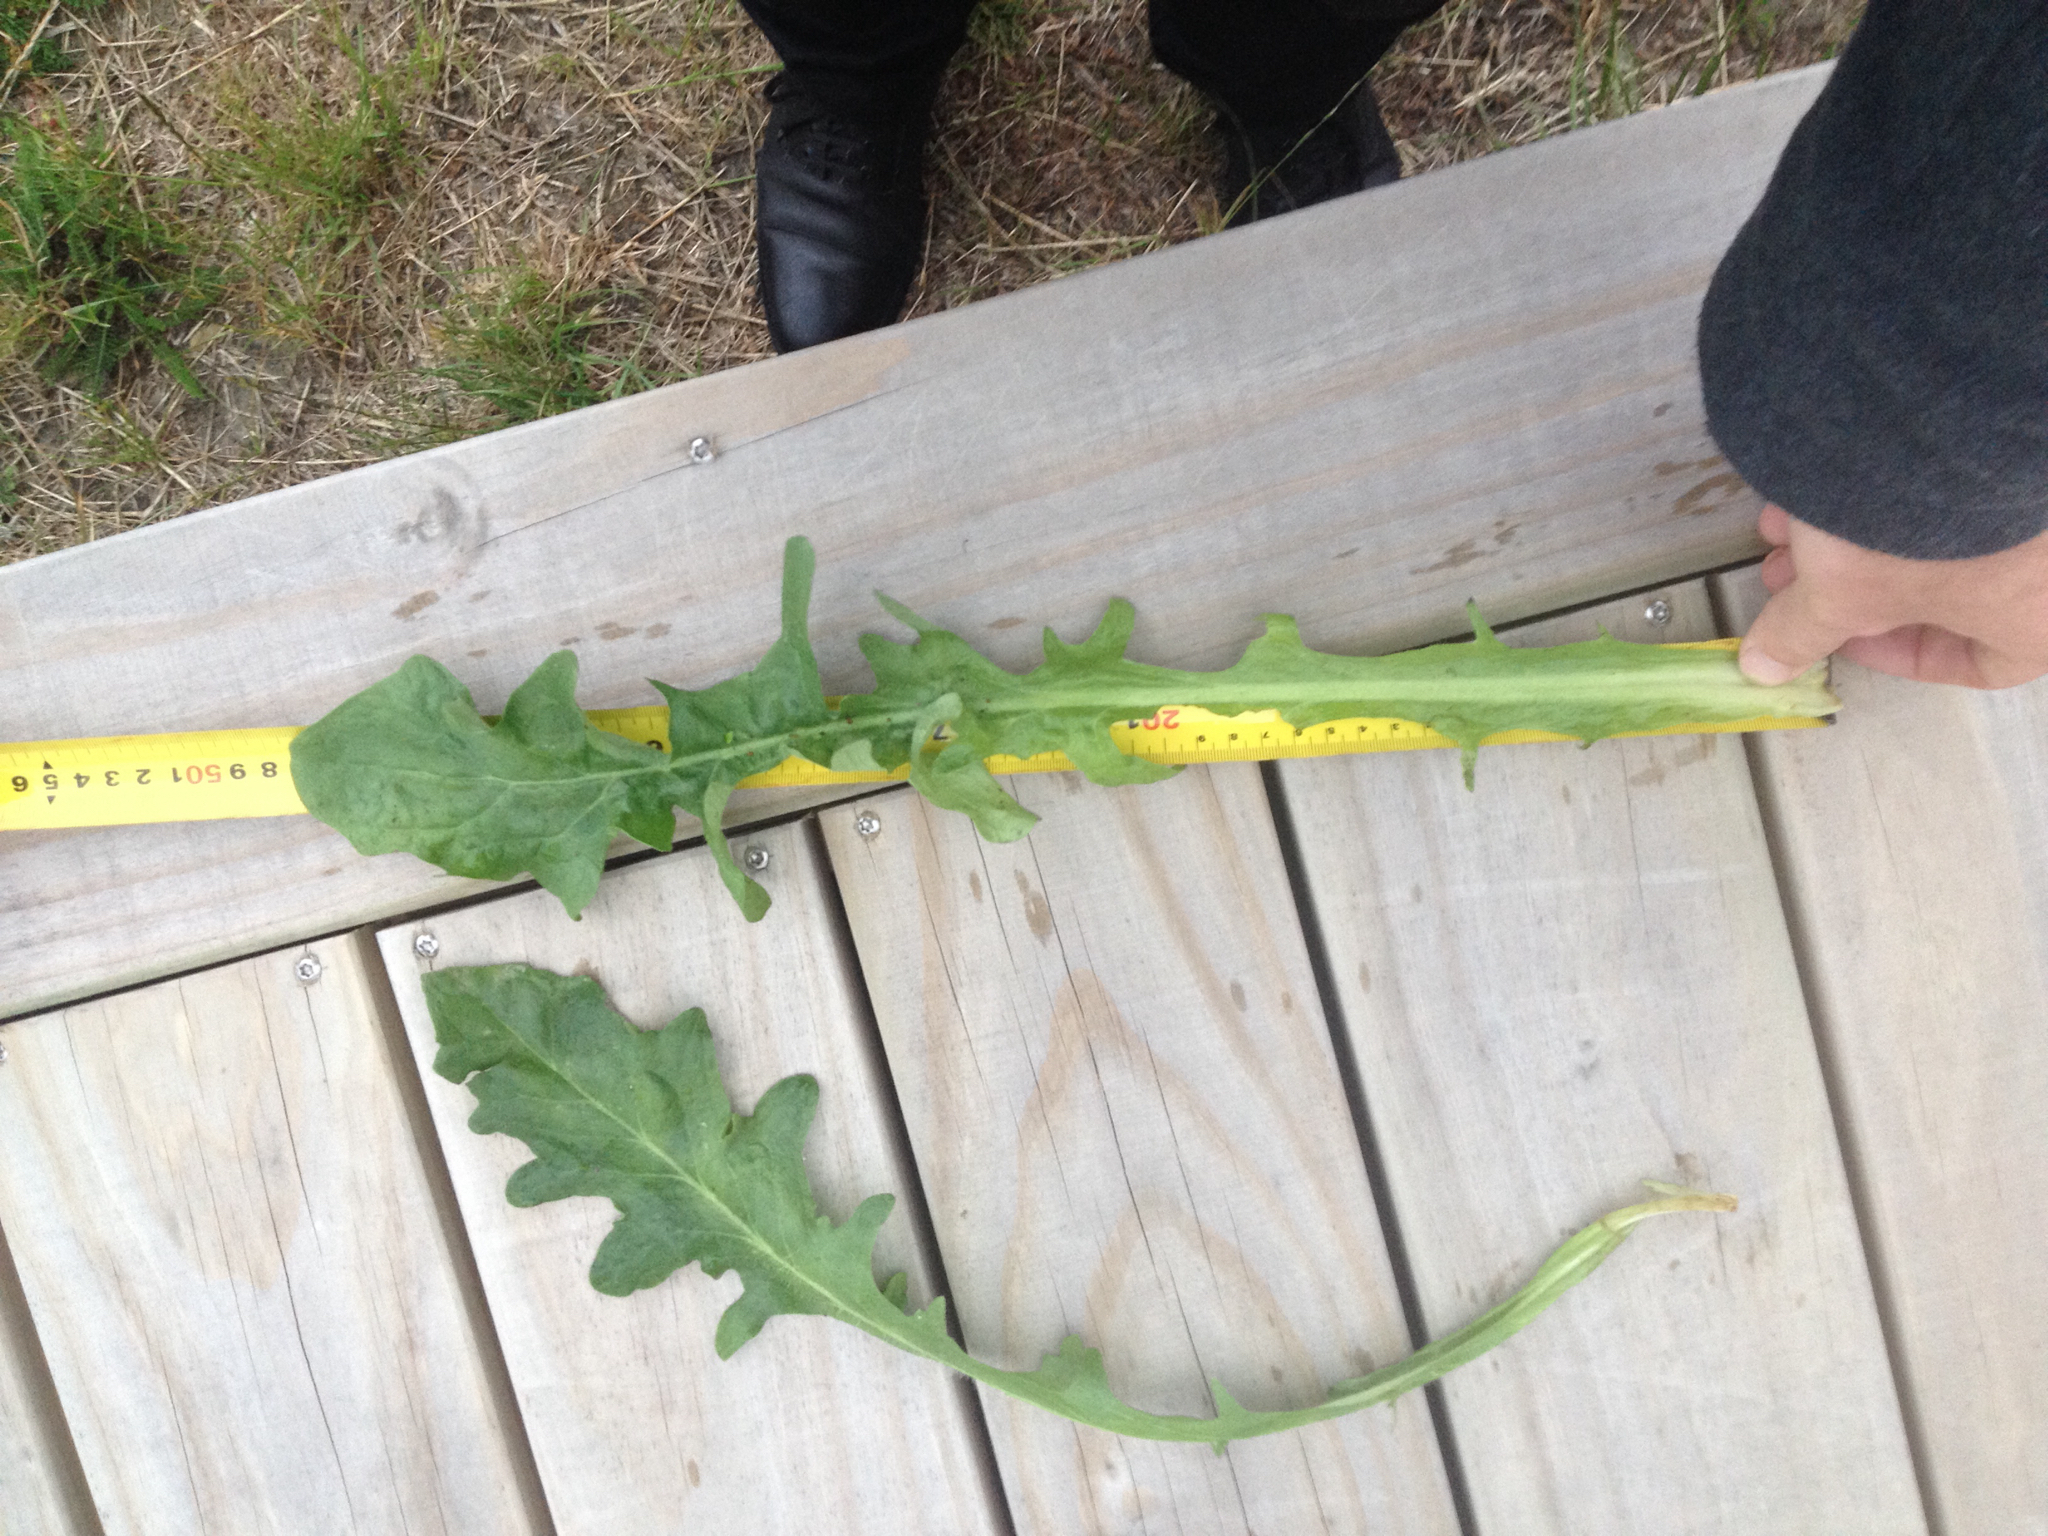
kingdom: Plantae
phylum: Tracheophyta
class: Magnoliopsida
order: Asterales
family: Asteraceae
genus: Taraxacum
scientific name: Taraxacum officinale
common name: Common dandelion
